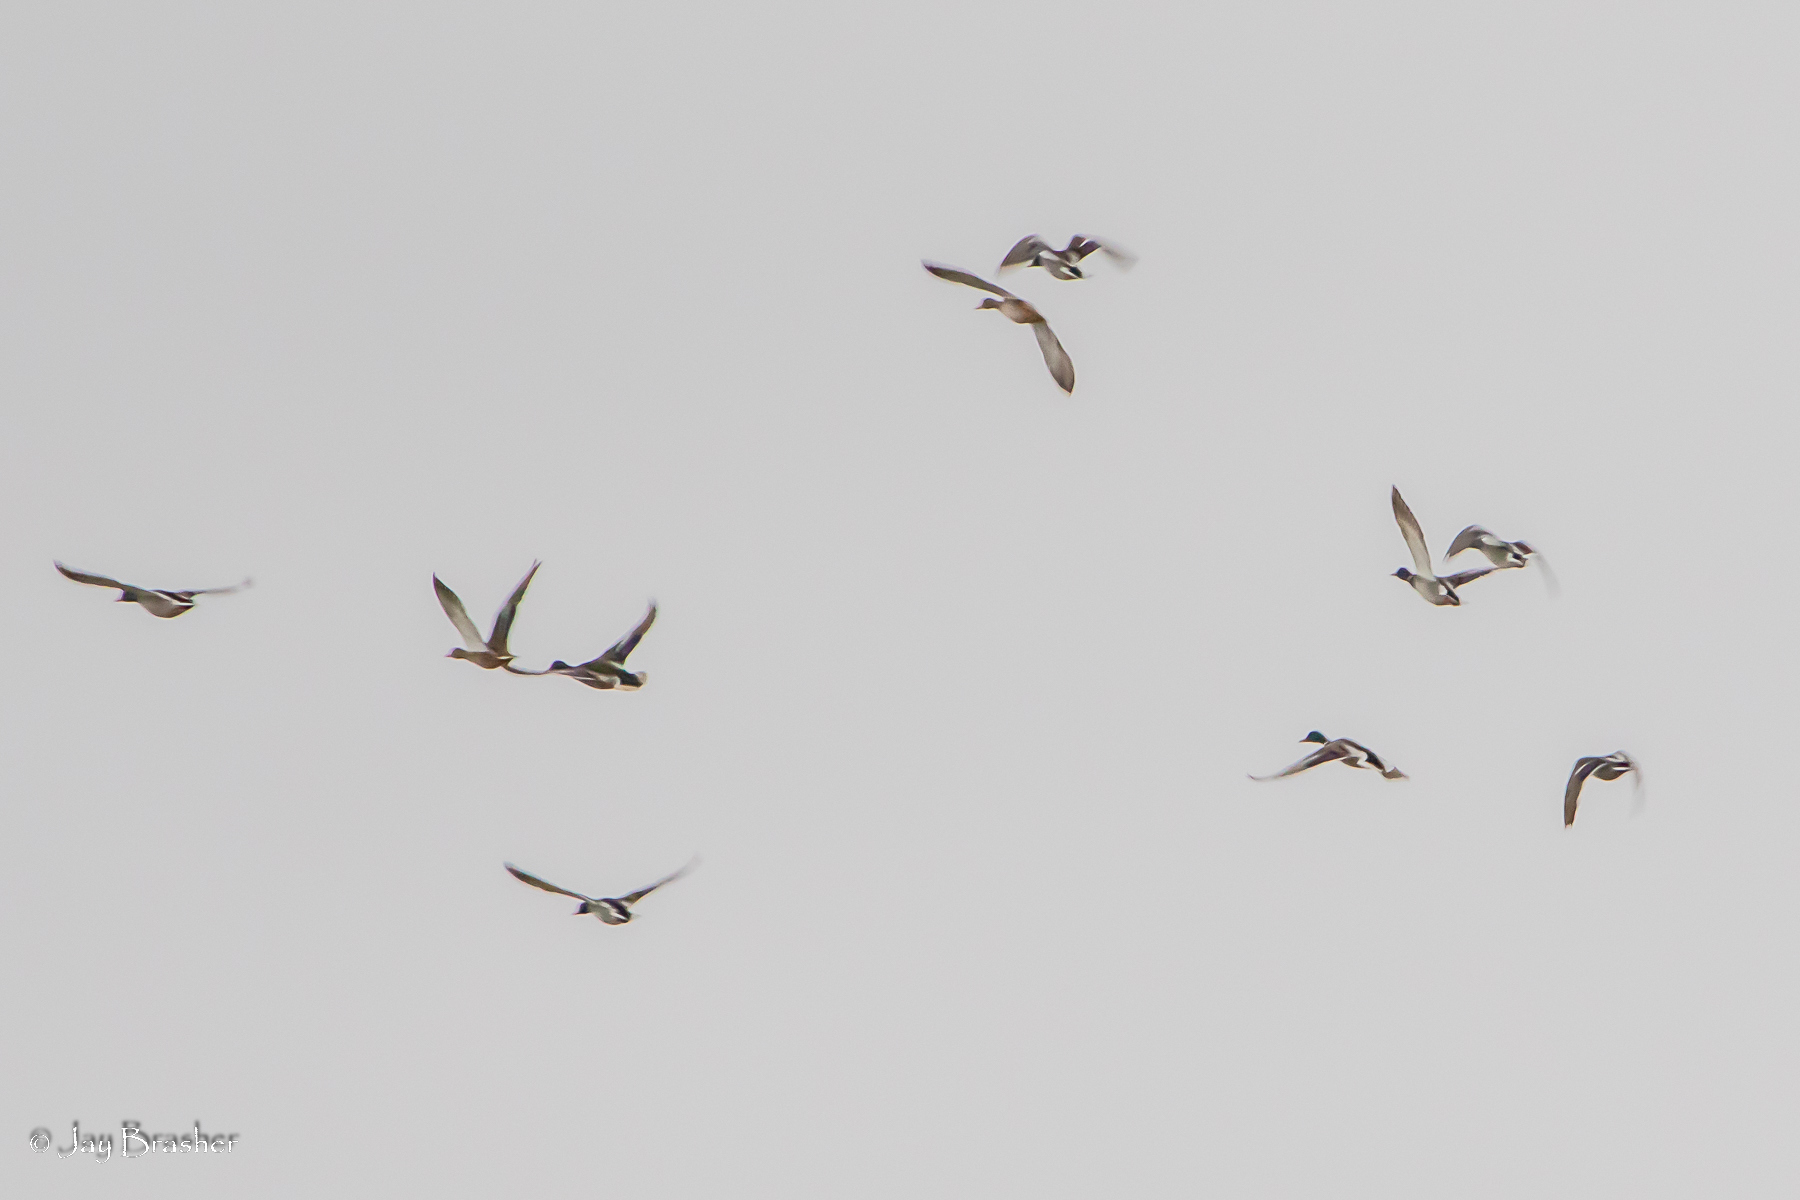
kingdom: Animalia
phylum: Chordata
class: Aves
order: Anseriformes
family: Anatidae
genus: Anas
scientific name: Anas platyrhynchos
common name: Mallard
